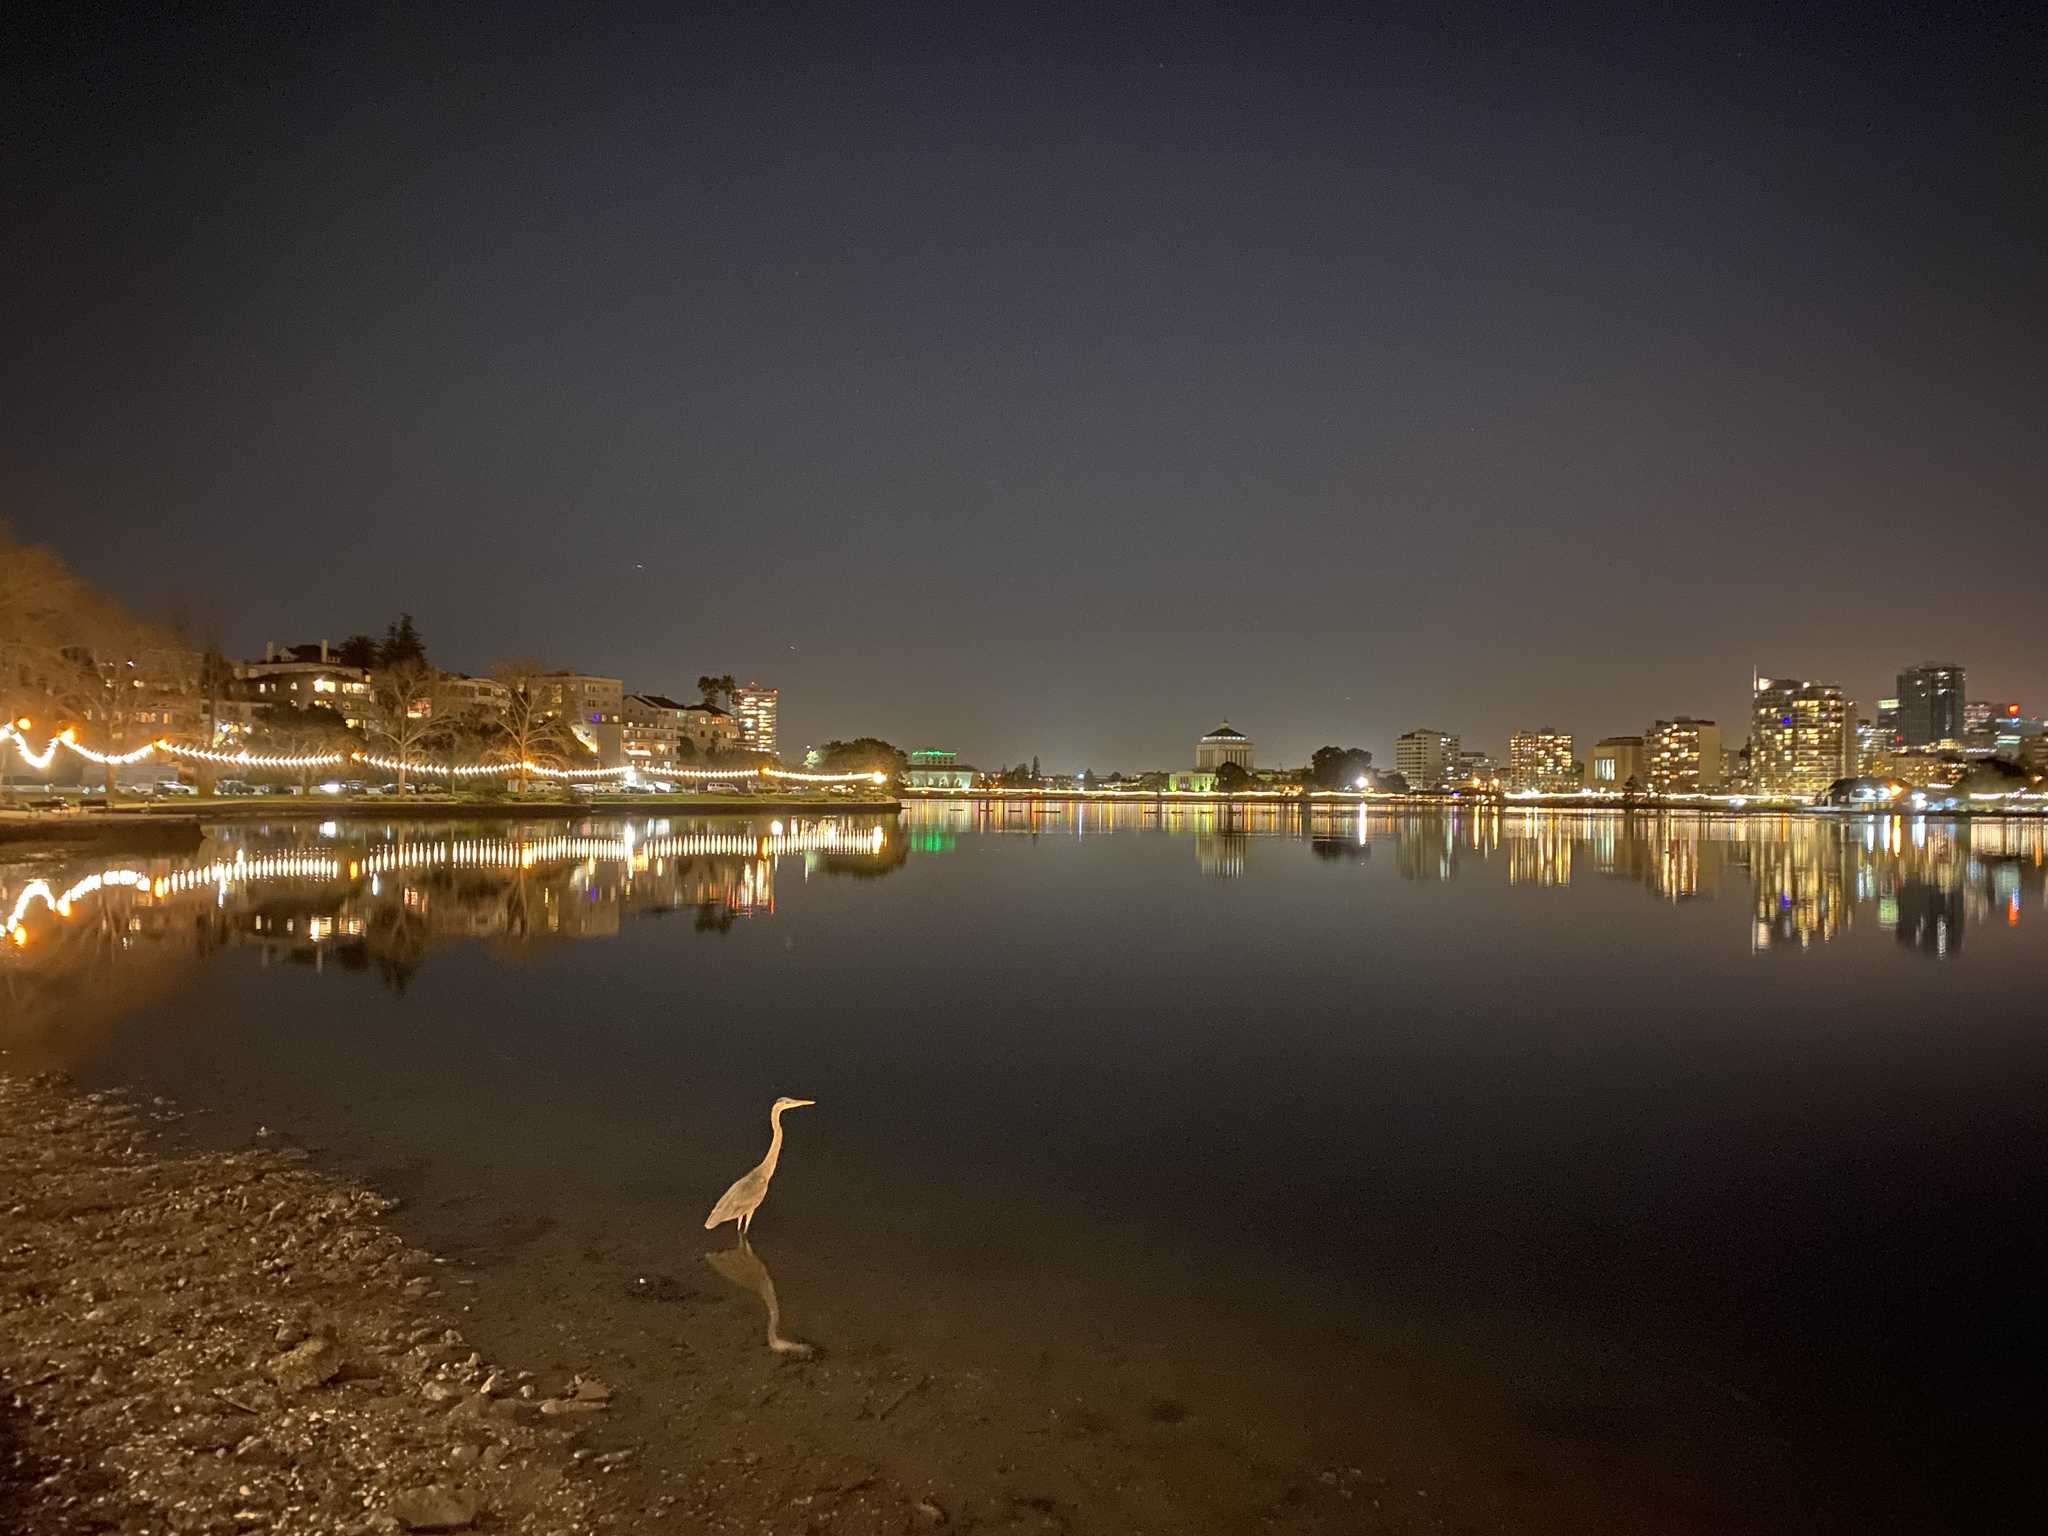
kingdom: Animalia
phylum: Chordata
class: Aves
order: Pelecaniformes
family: Ardeidae
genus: Ardea
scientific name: Ardea herodias
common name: Great blue heron
